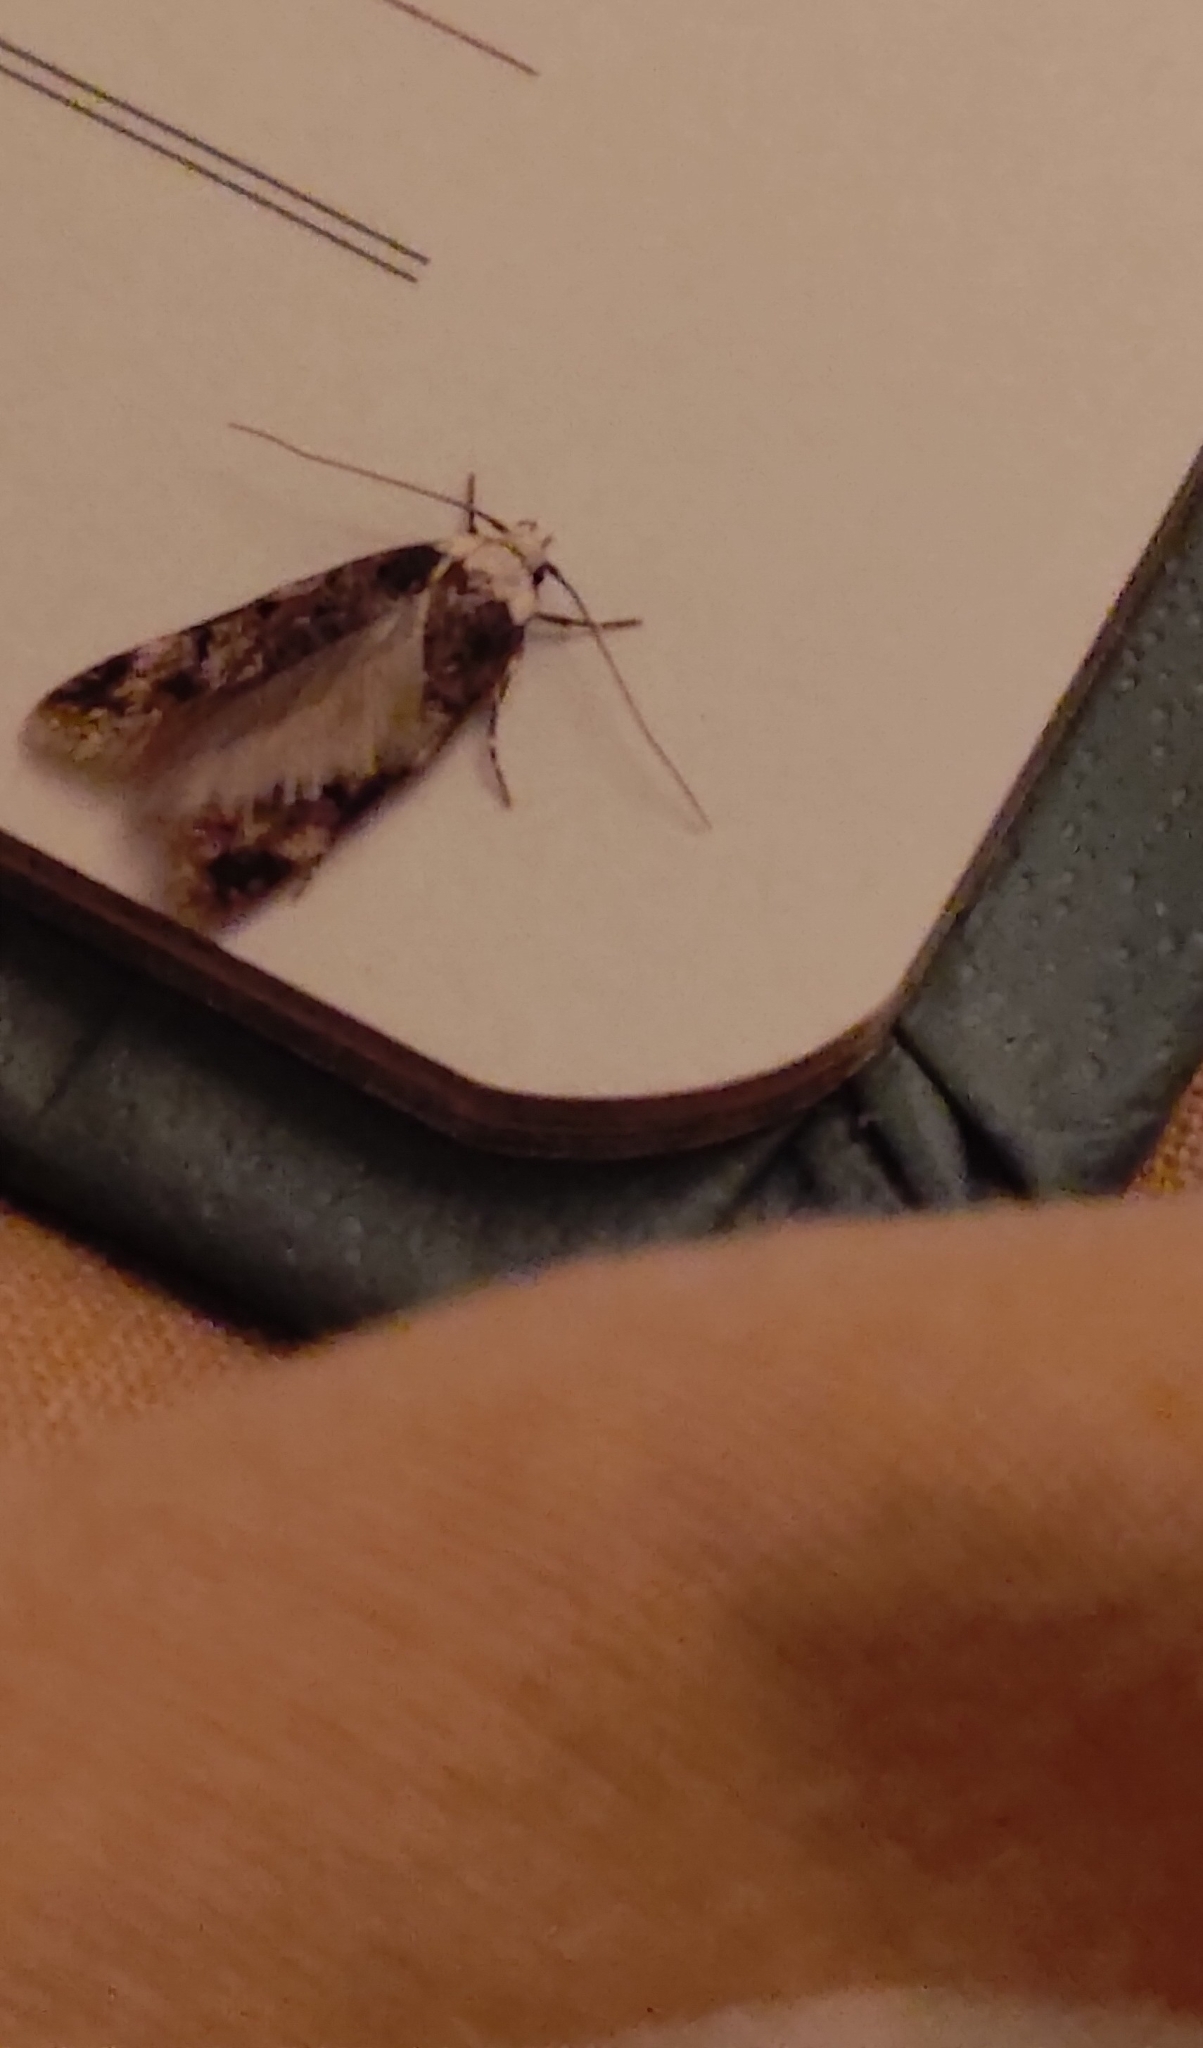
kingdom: Animalia
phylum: Arthropoda
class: Insecta
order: Lepidoptera
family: Oecophoridae
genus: Endrosis
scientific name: Endrosis sarcitrella
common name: White-shouldered house moth
